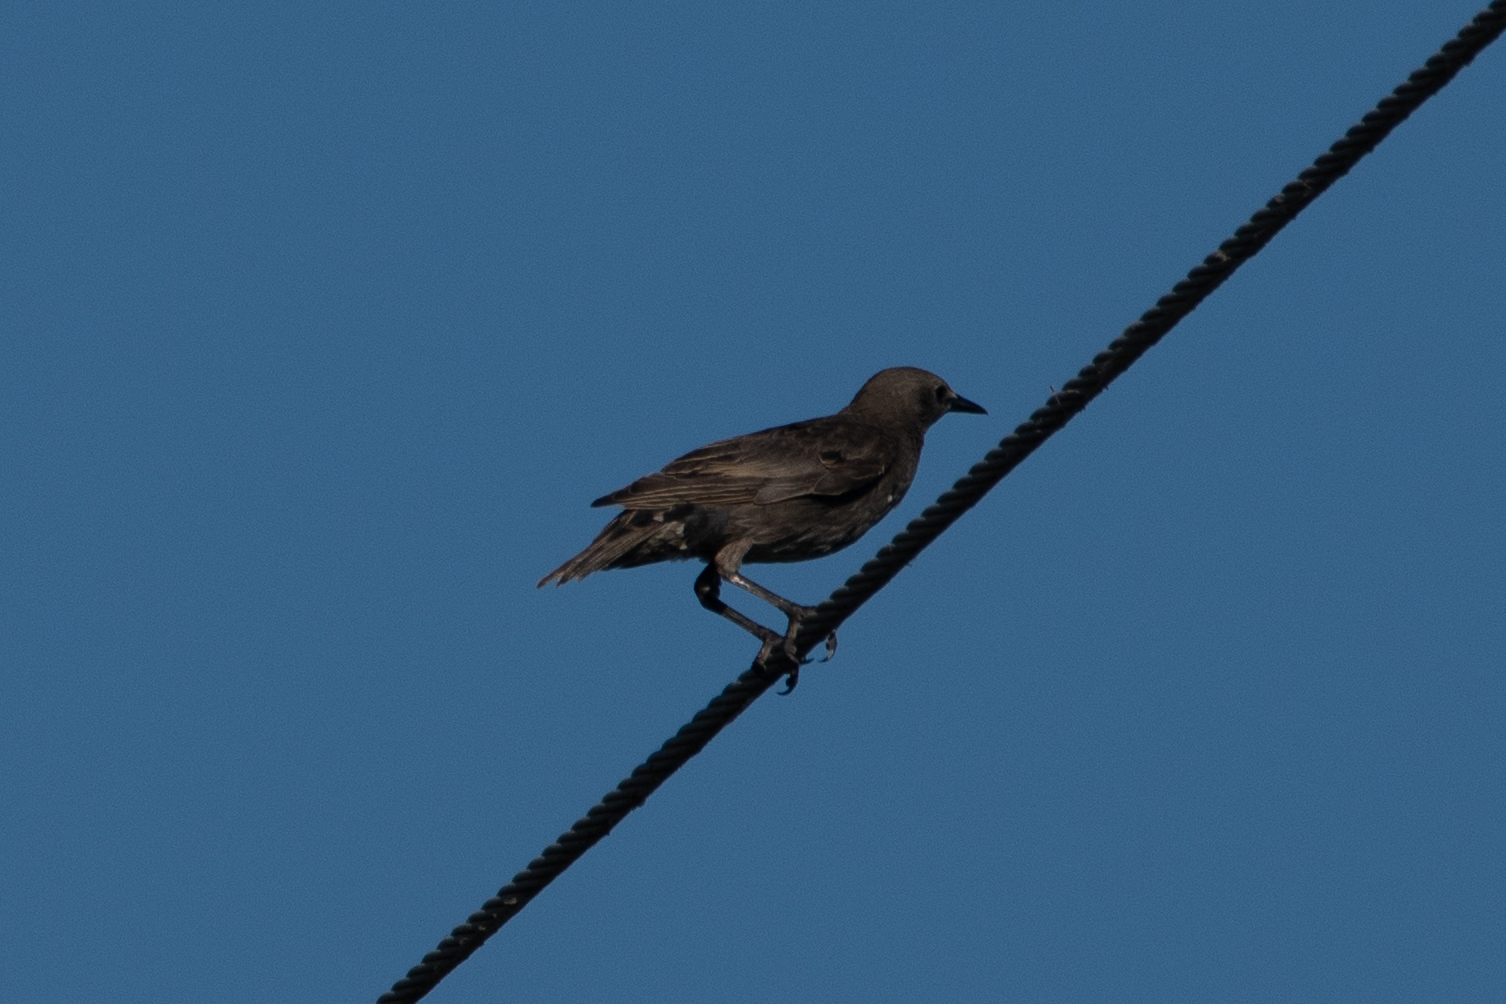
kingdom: Animalia
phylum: Chordata
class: Aves
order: Passeriformes
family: Sturnidae
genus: Sturnus
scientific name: Sturnus vulgaris
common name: Common starling
